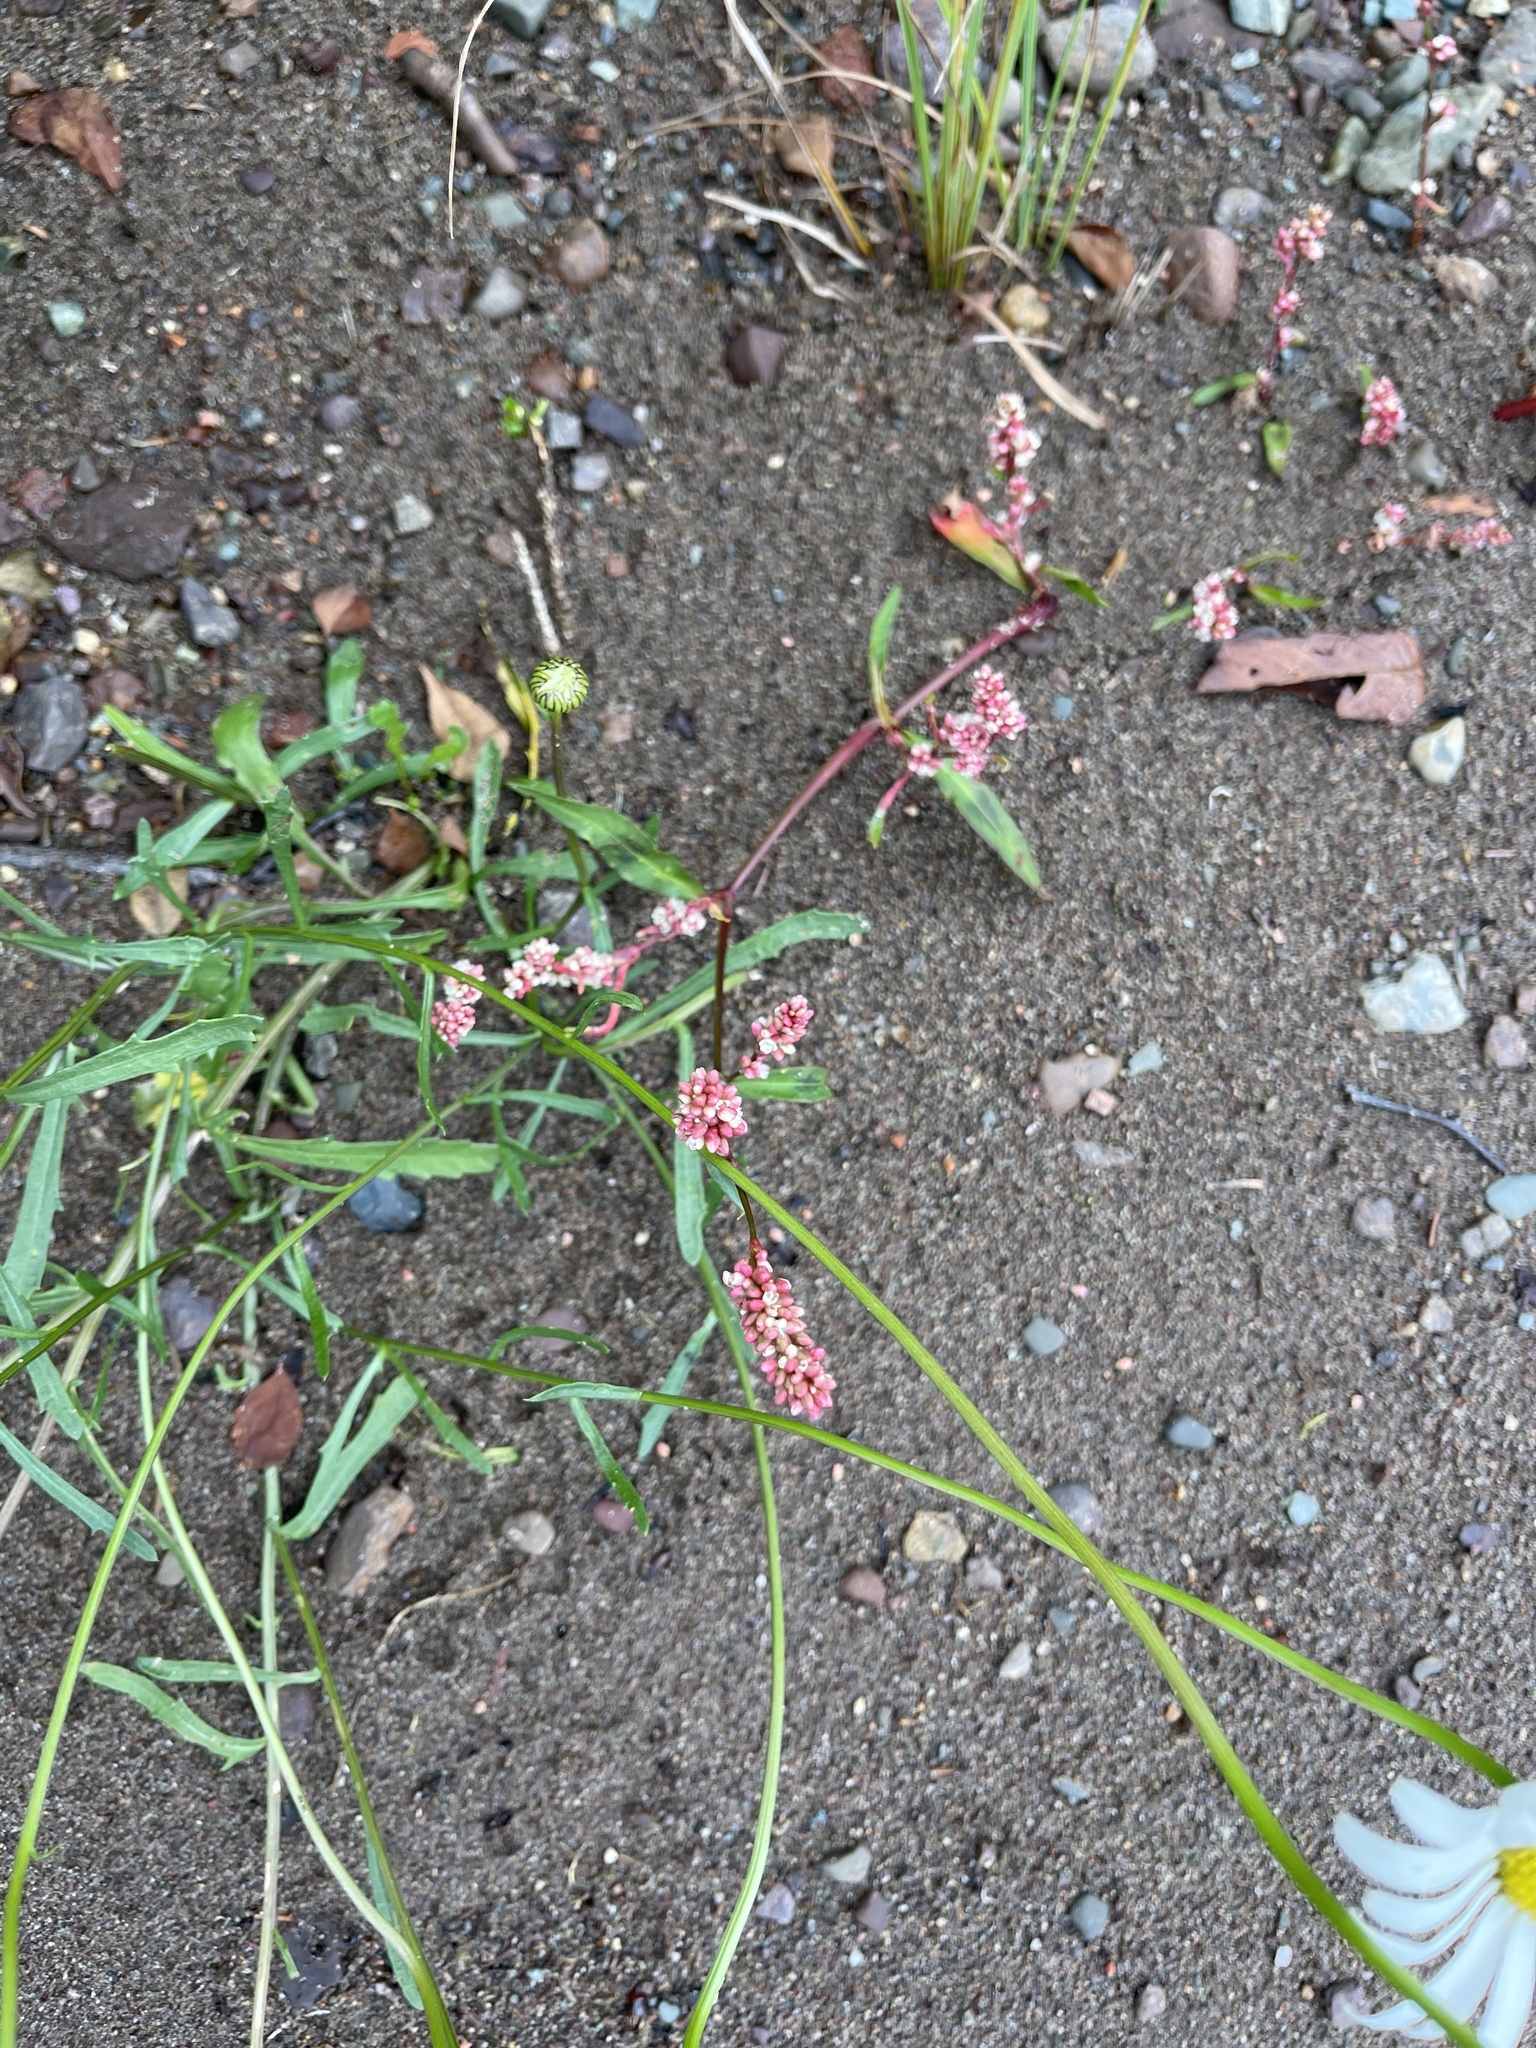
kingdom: Plantae
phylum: Tracheophyta
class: Magnoliopsida
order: Caryophyllales
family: Polygonaceae
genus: Persicaria
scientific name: Persicaria maculosa
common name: Redshank
